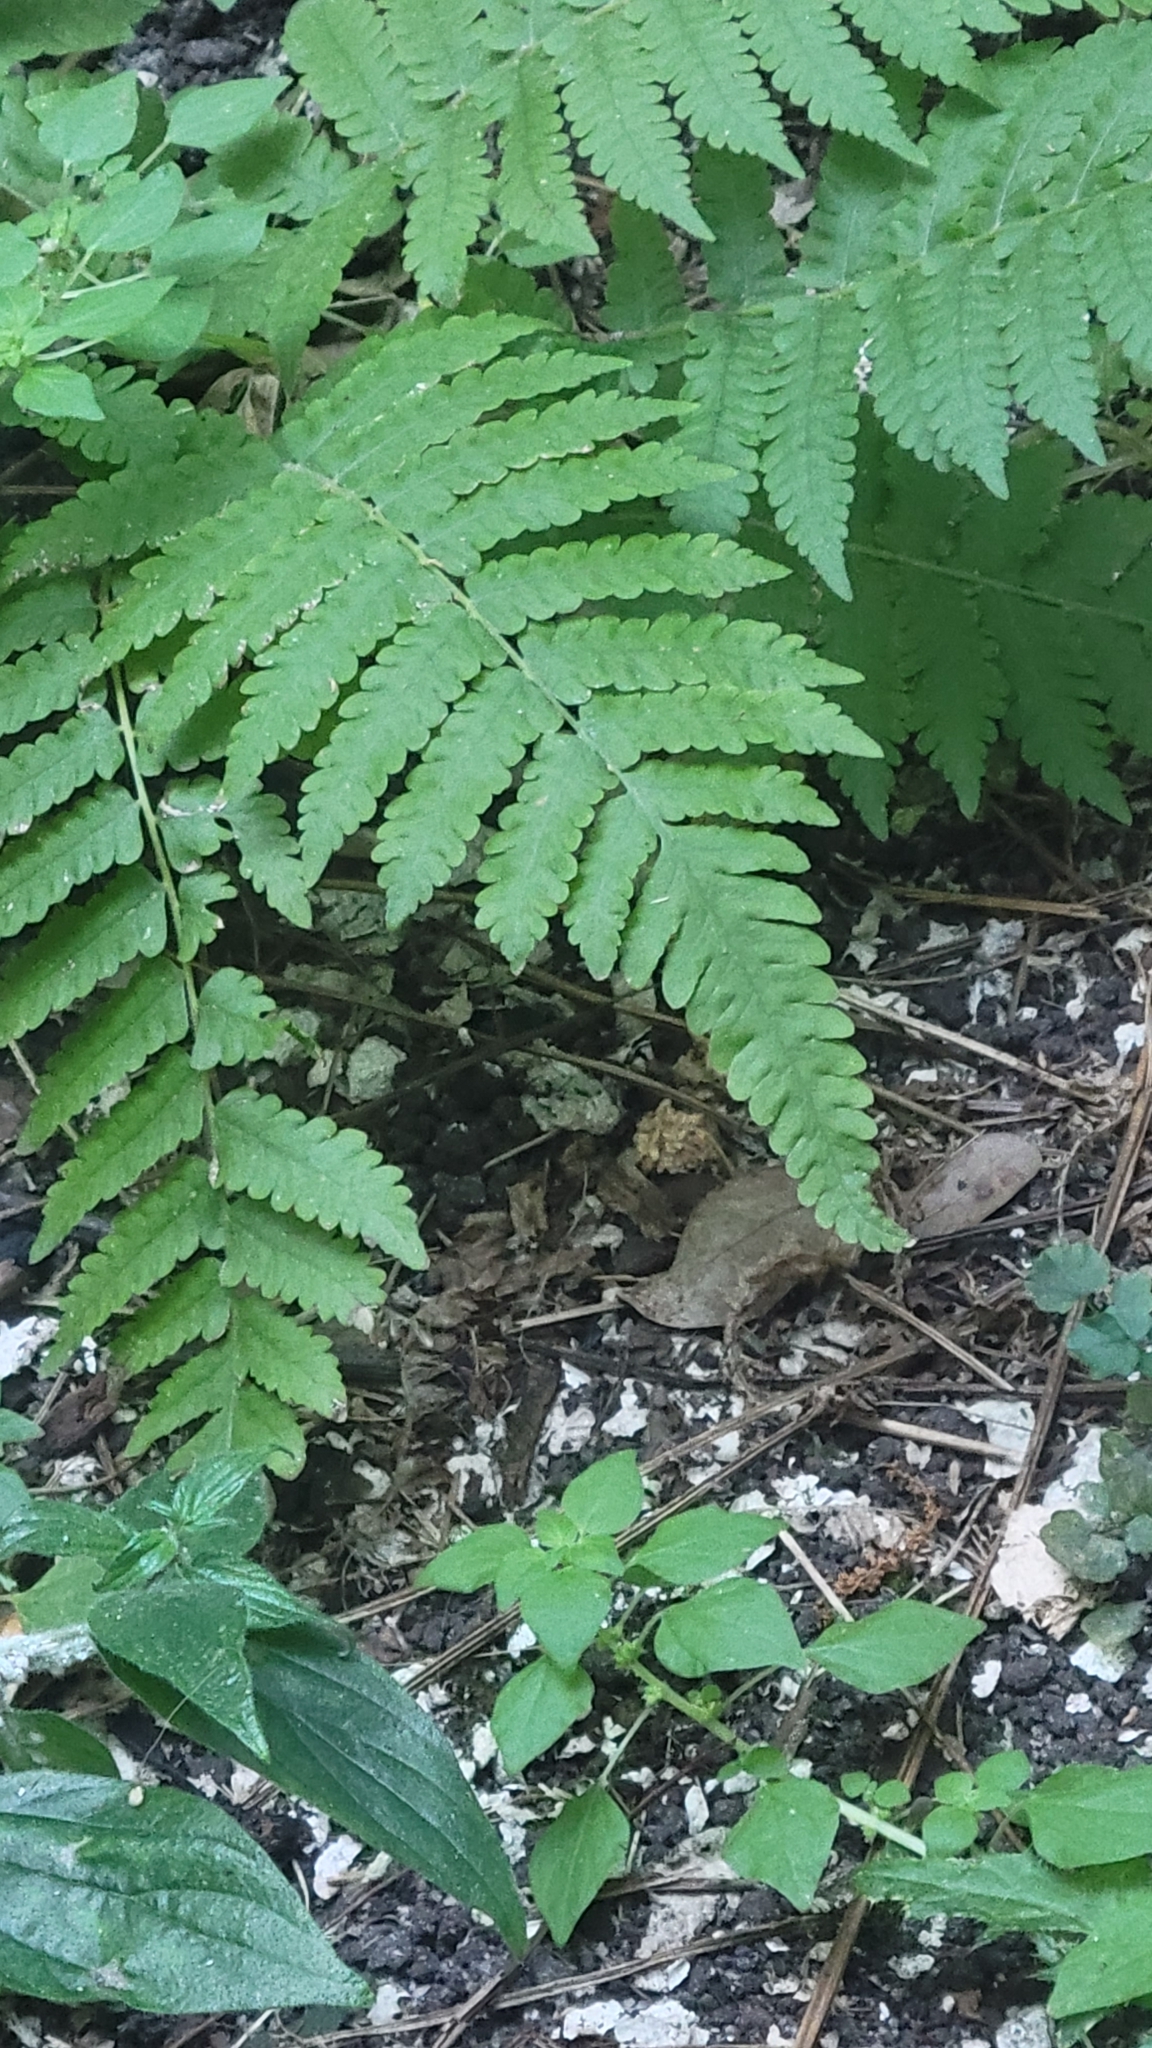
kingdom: Plantae
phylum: Tracheophyta
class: Polypodiopsida
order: Polypodiales
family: Thelypteridaceae
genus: Christella
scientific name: Christella dentata
